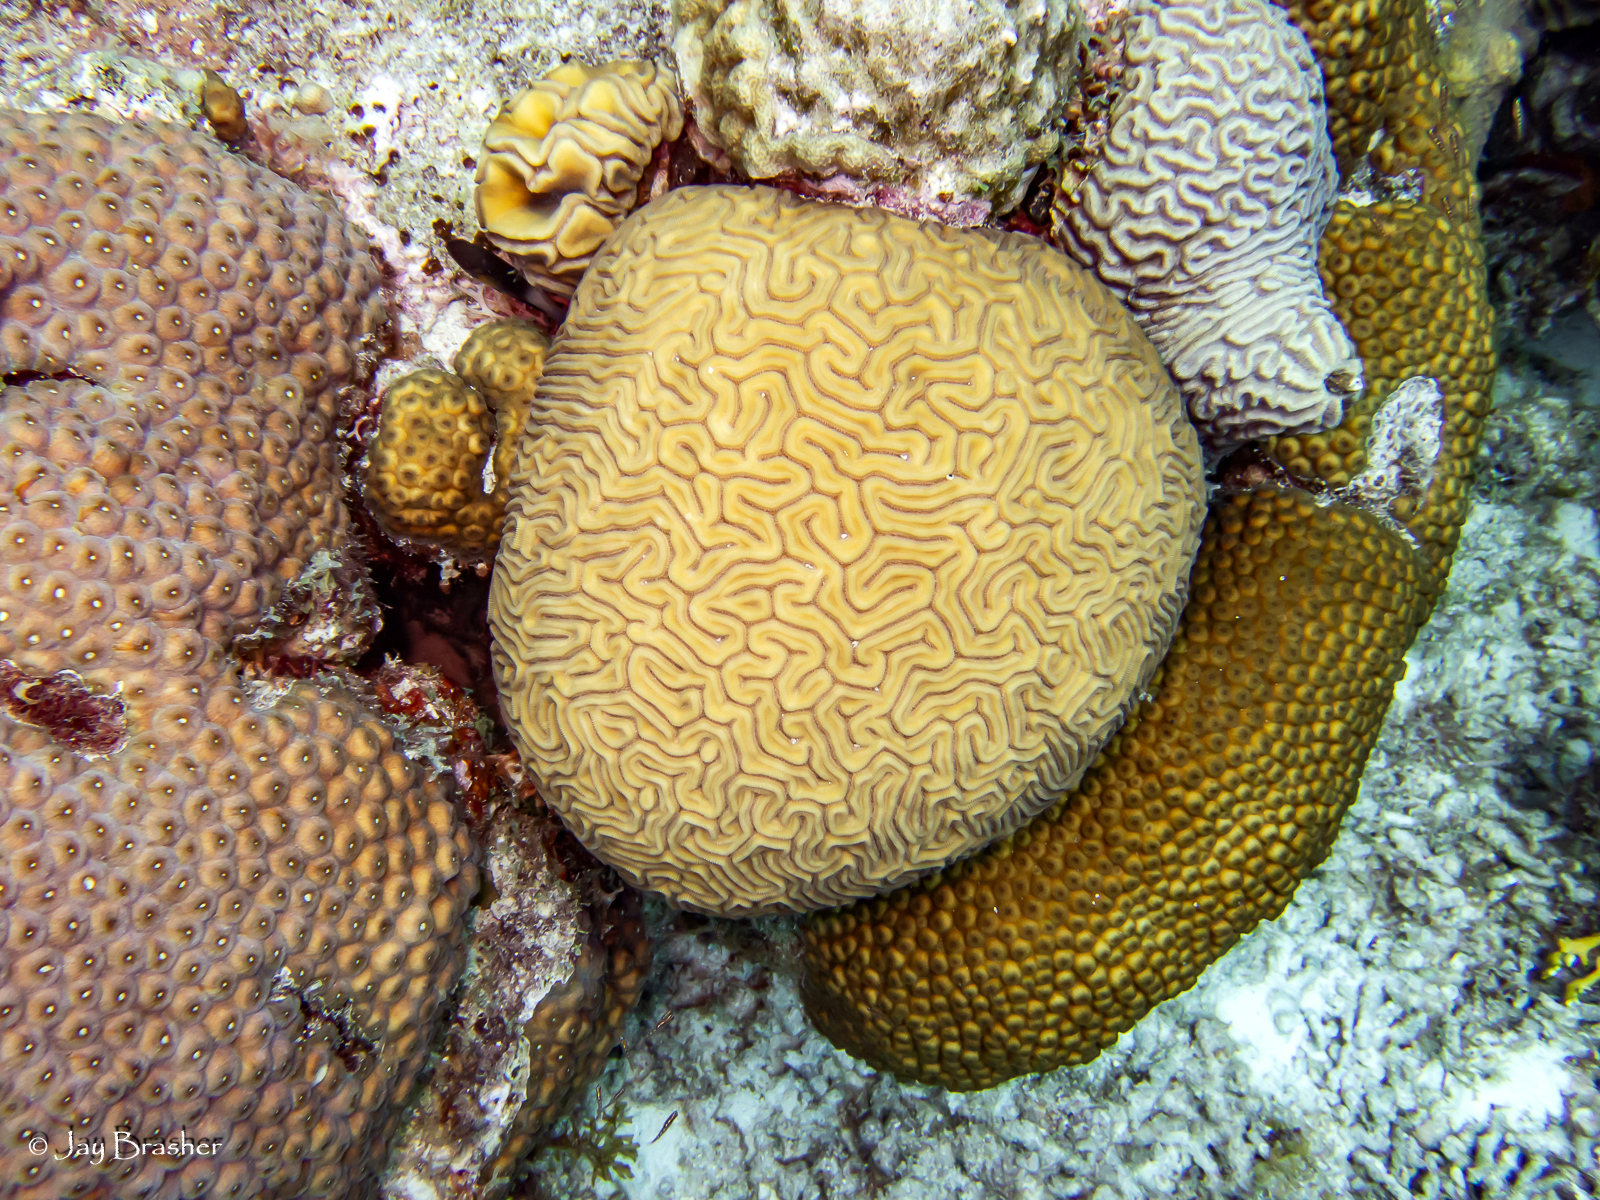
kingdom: Animalia
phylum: Cnidaria
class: Anthozoa
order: Scleractinia
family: Montastraeidae
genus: Montastraea
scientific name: Montastraea cavernosa
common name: Great star coral
